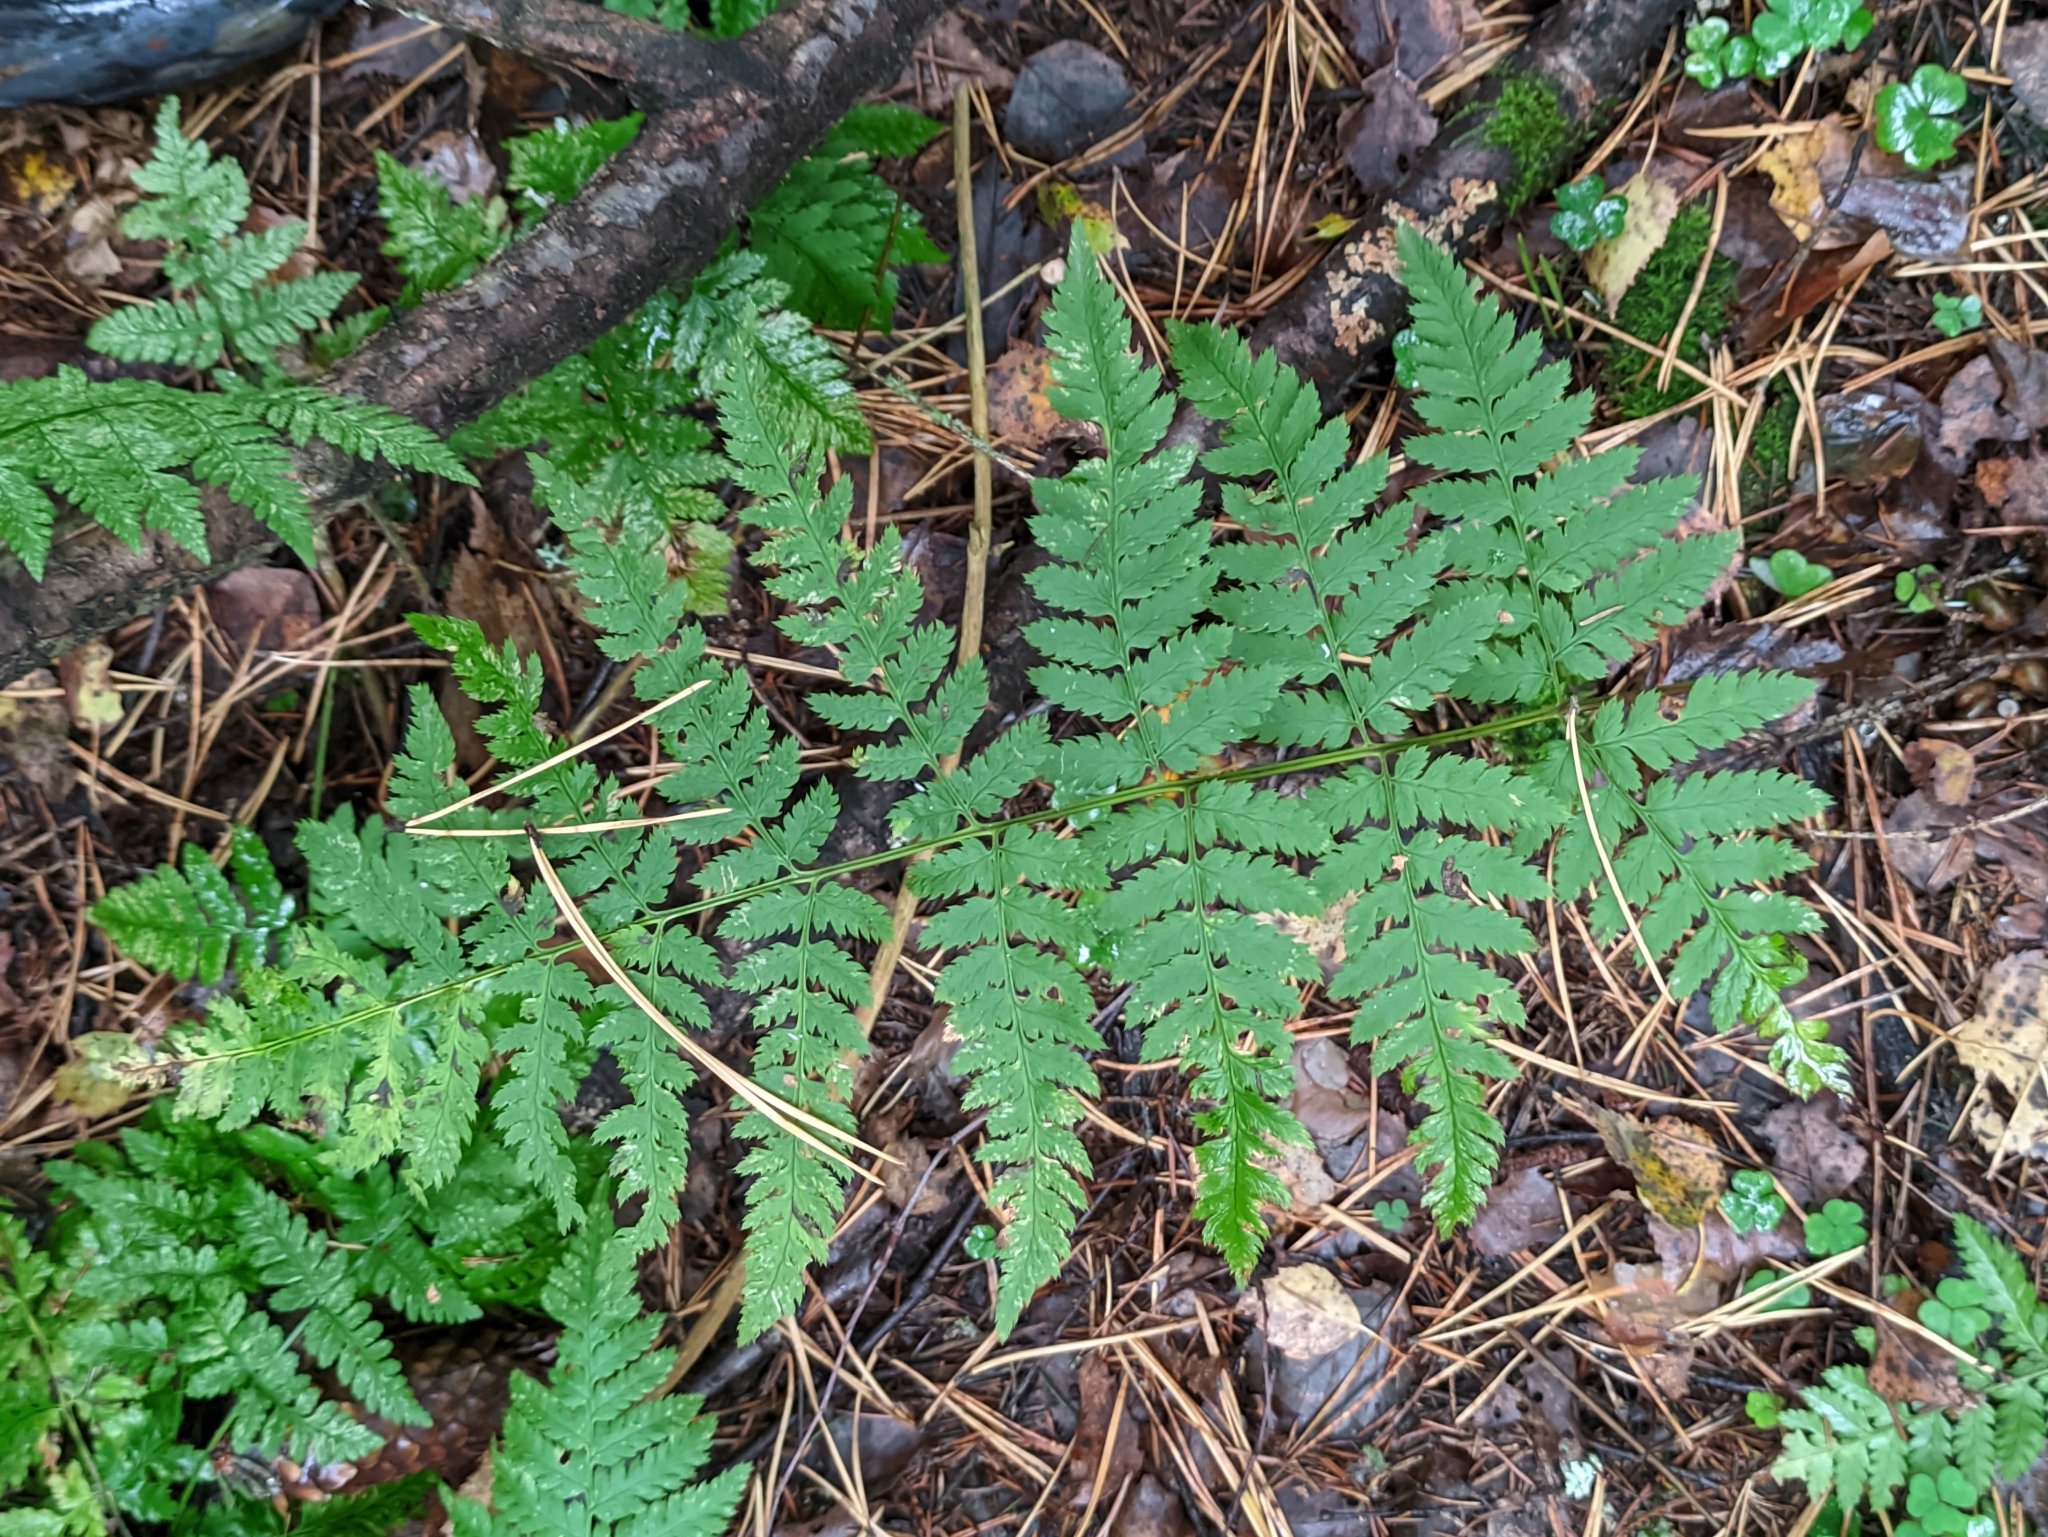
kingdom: Plantae
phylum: Tracheophyta
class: Polypodiopsida
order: Polypodiales
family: Dryopteridaceae
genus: Dryopteris
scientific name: Dryopteris carthusiana
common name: Narrow buckler-fern
